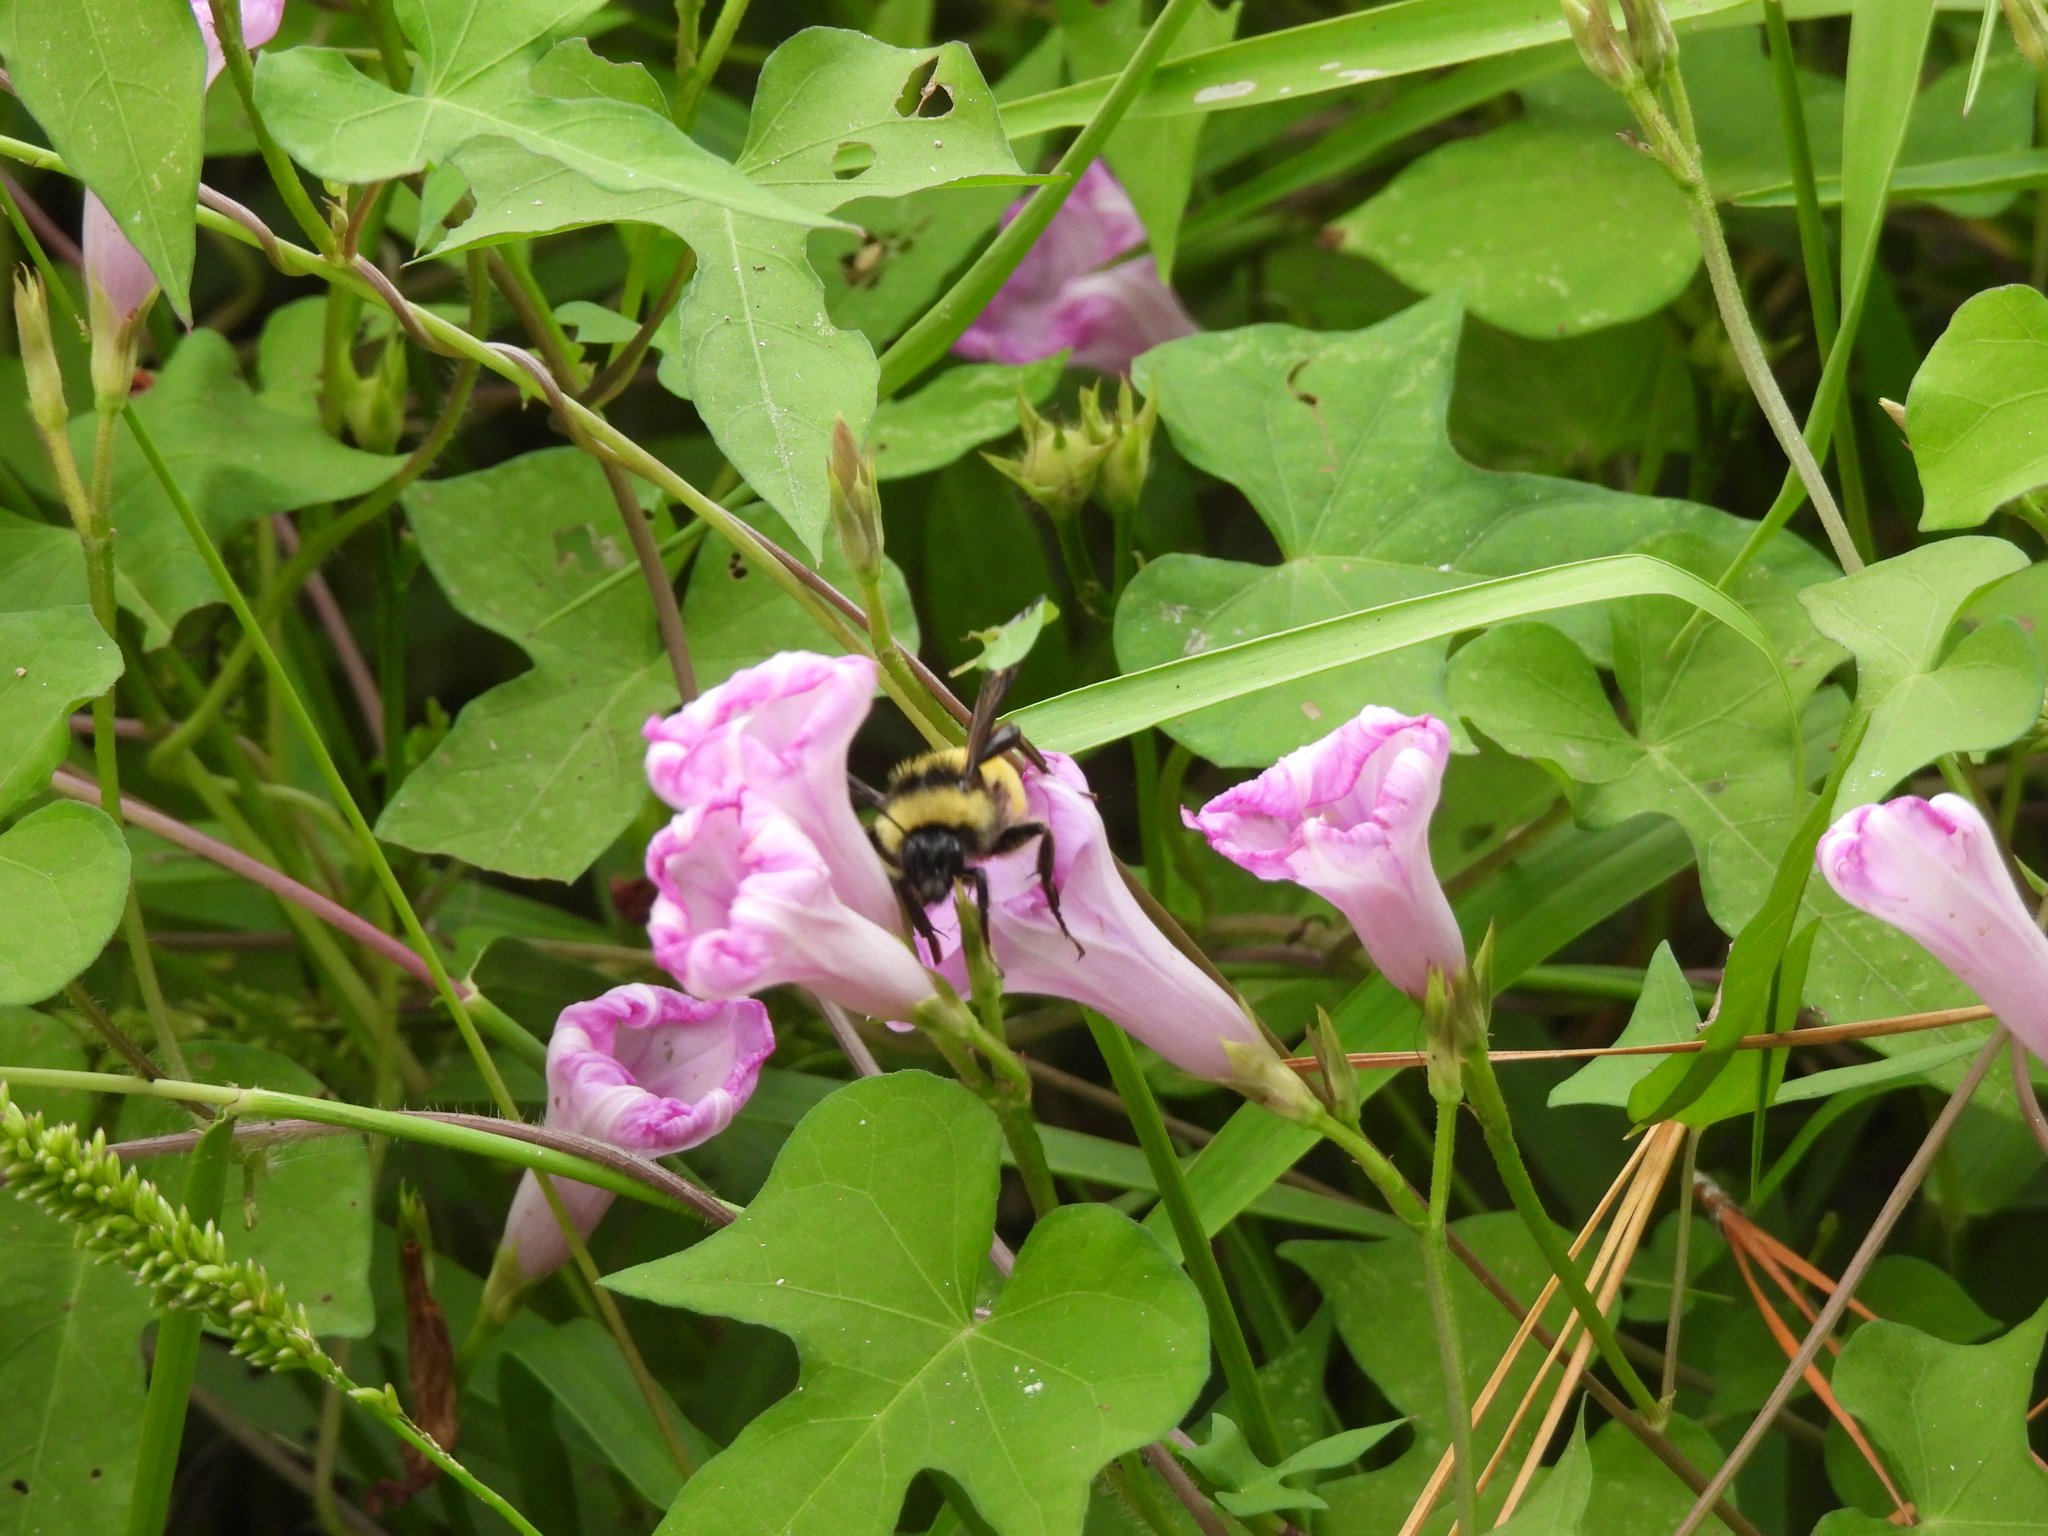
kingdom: Animalia
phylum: Arthropoda
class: Insecta
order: Hymenoptera
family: Apidae
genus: Bombus
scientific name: Bombus pensylvanicus
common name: Bumble bee
